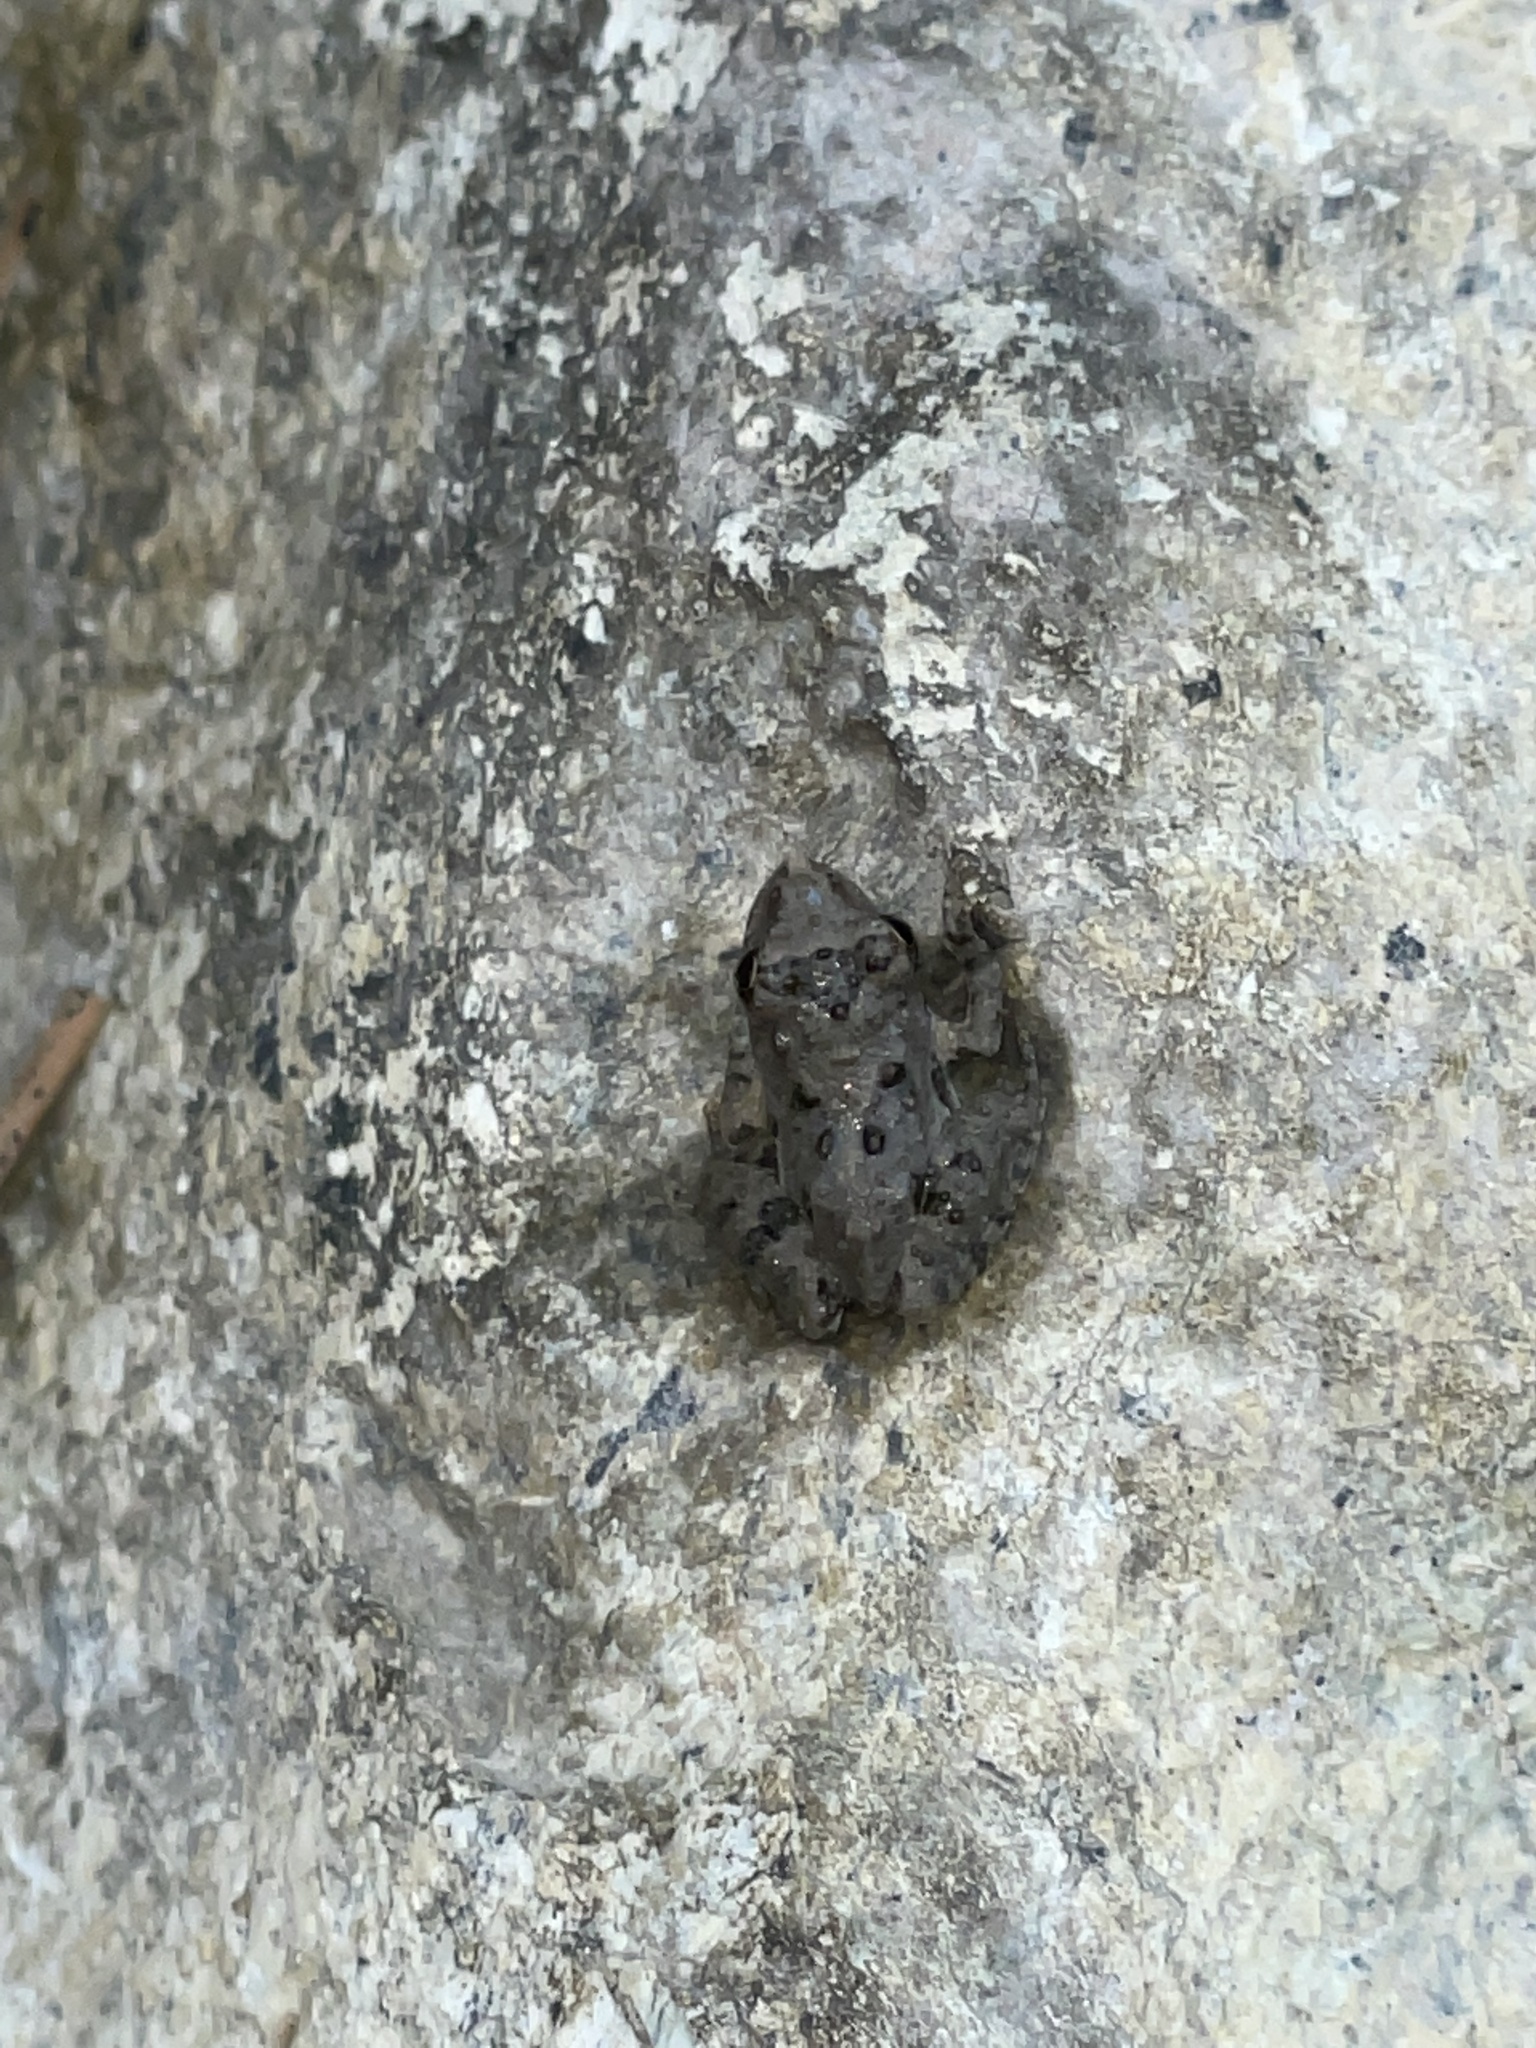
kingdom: Animalia
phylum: Chordata
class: Amphibia
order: Anura
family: Hylidae
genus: Acris
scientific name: Acris crepitans
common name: Northern cricket frog
